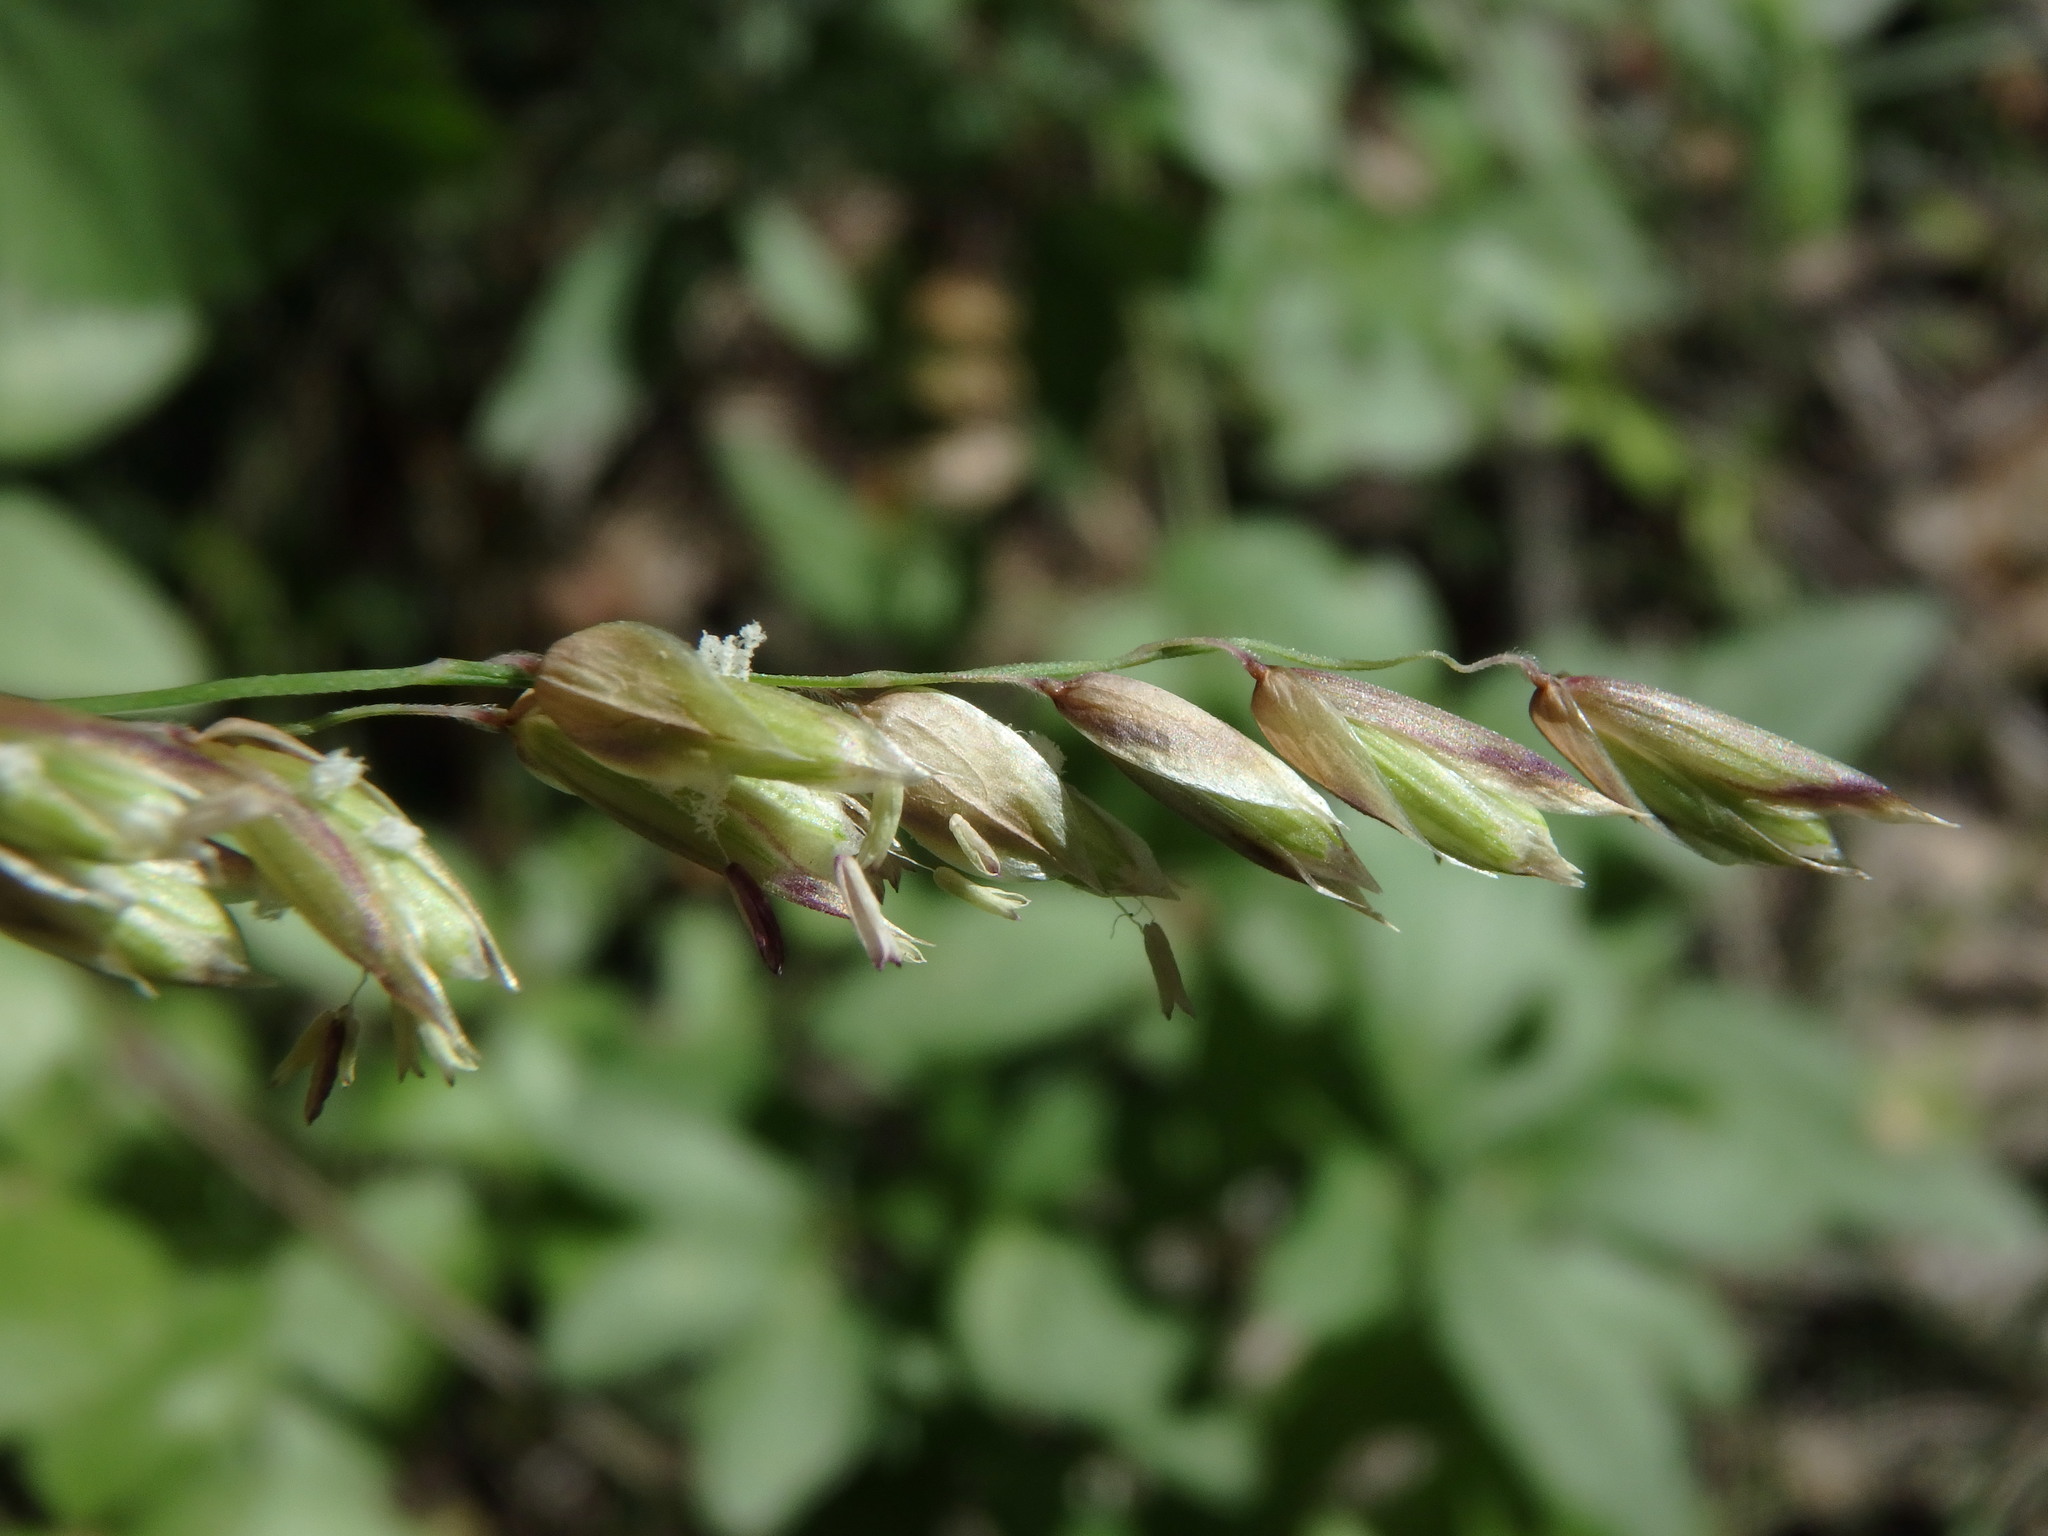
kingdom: Plantae
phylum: Tracheophyta
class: Liliopsida
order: Poales
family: Poaceae
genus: Melica
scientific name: Melica minuta
